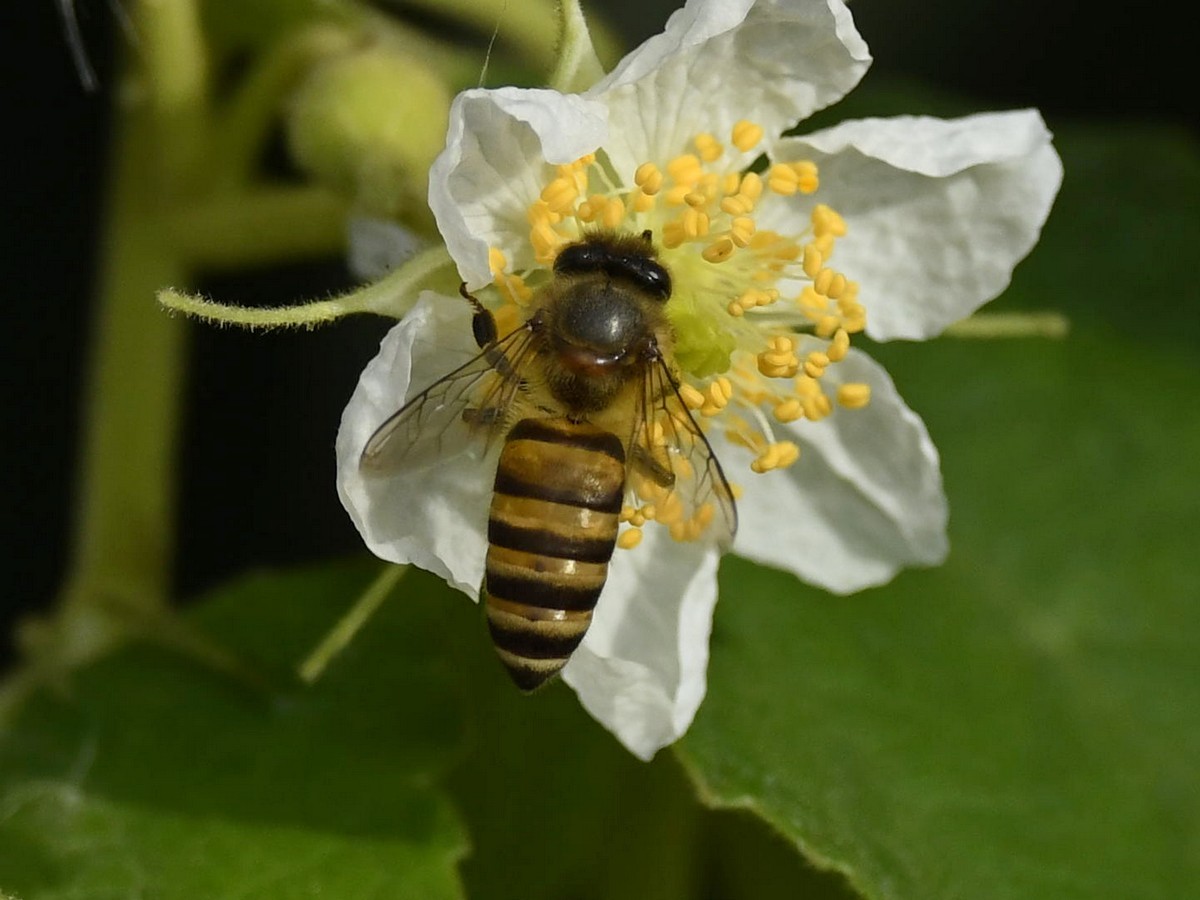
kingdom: Animalia
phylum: Arthropoda
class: Insecta
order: Hymenoptera
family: Apidae
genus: Apis
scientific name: Apis cerana
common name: Honey bee
